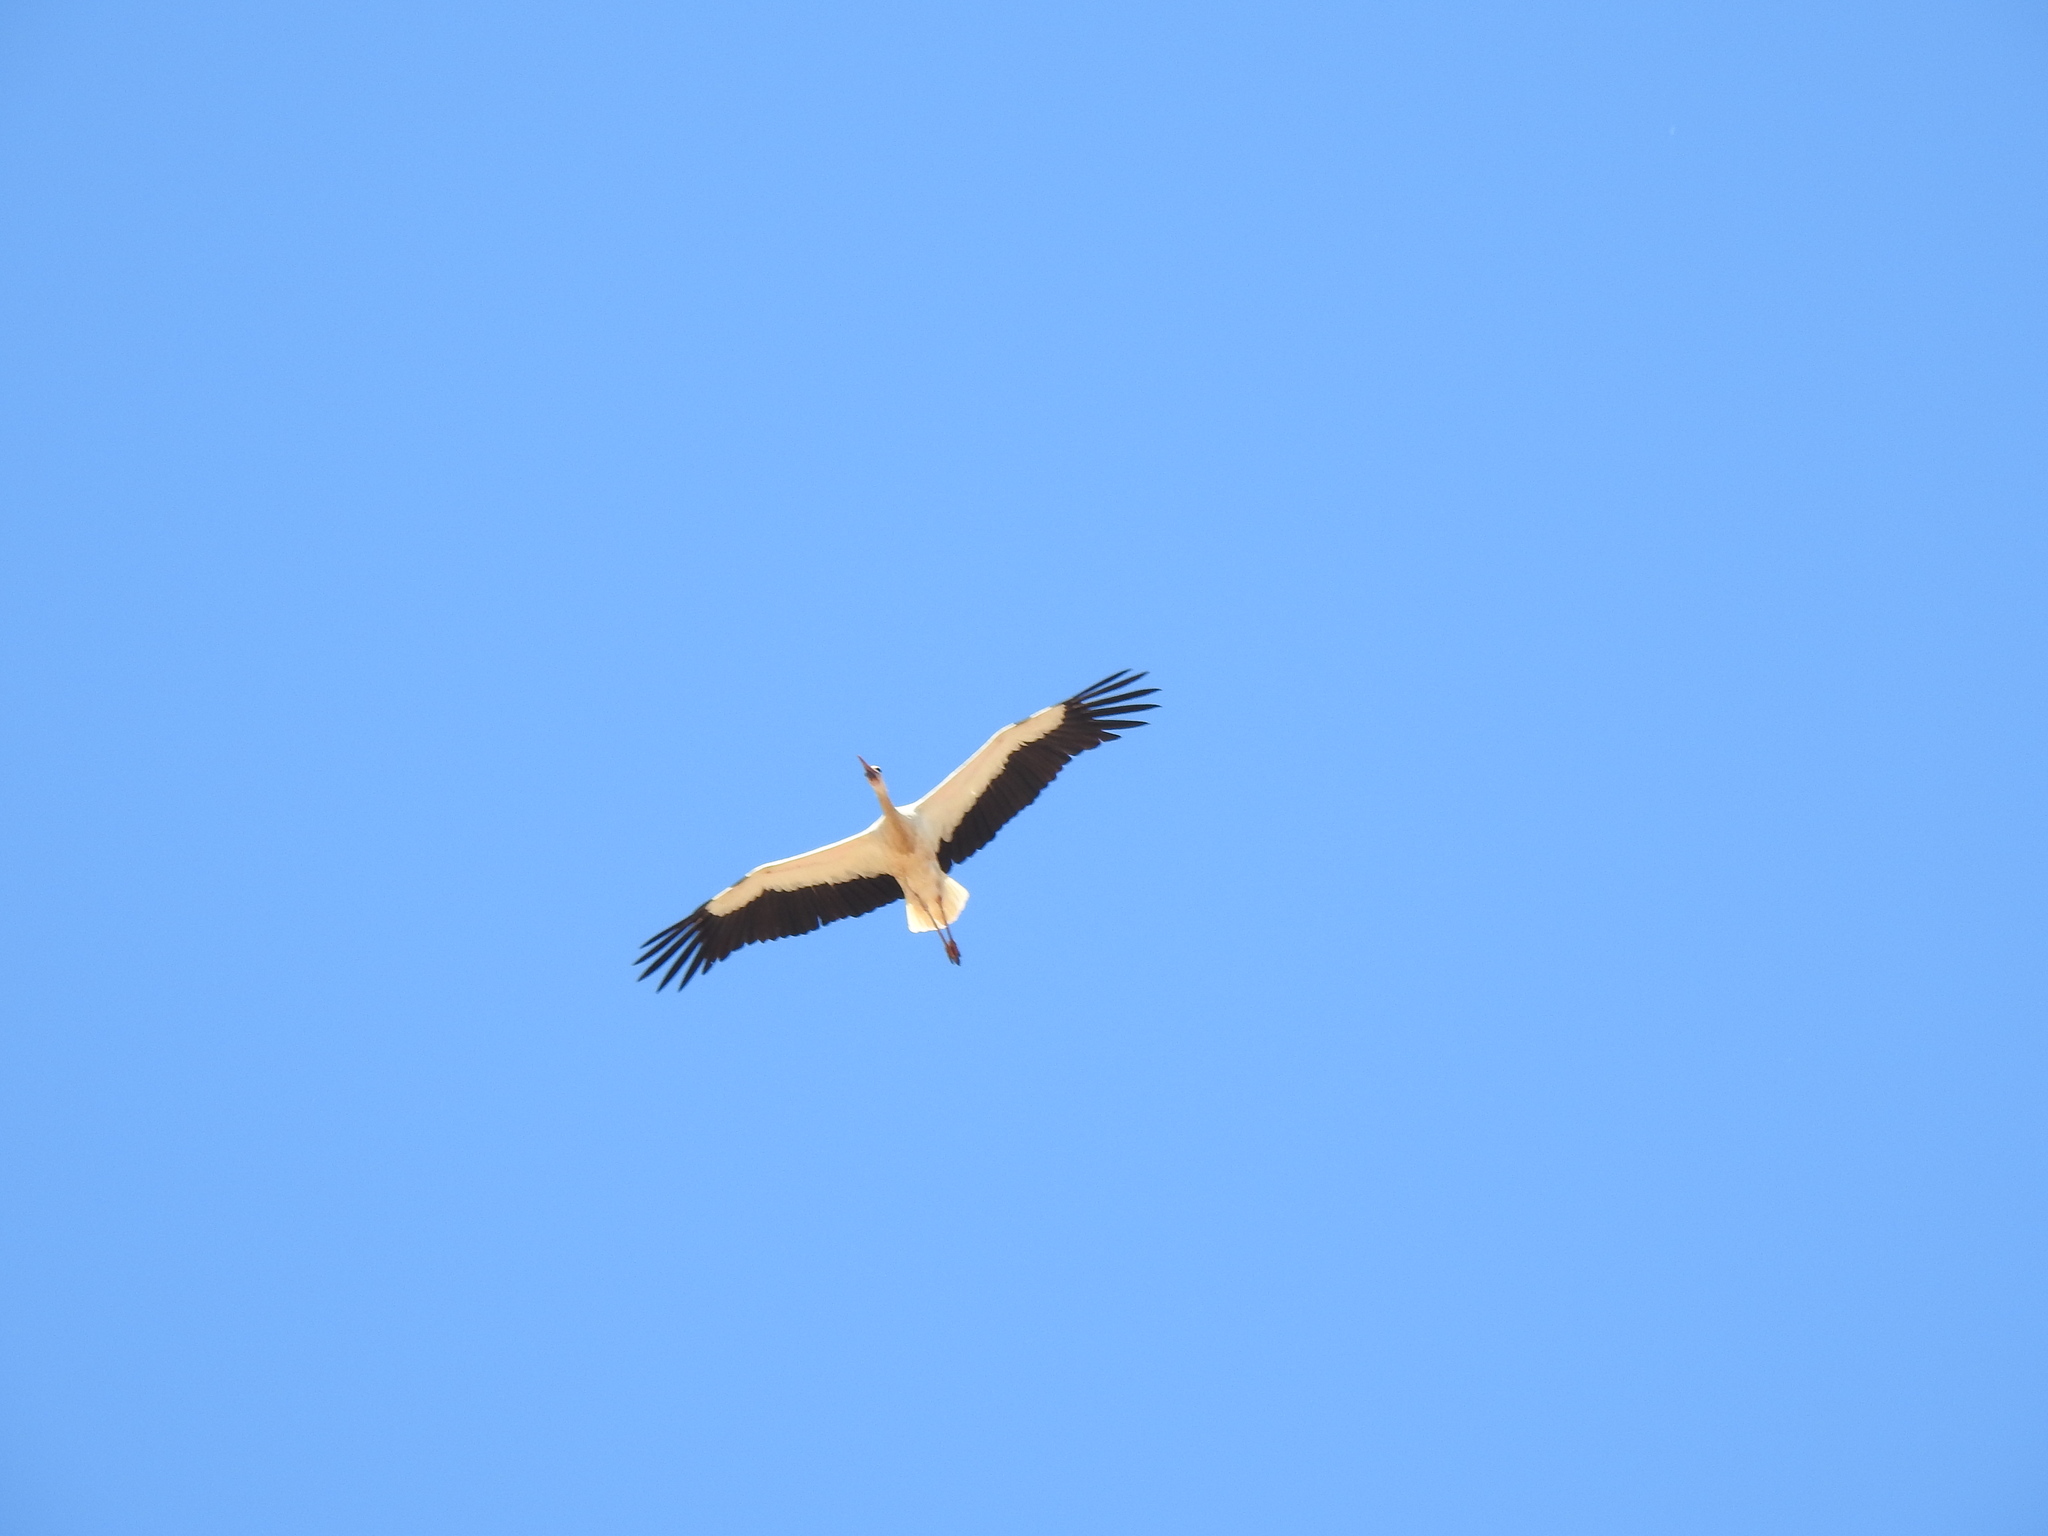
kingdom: Animalia
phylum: Chordata
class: Aves
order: Ciconiiformes
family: Ciconiidae
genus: Ciconia
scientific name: Ciconia ciconia
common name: White stork
